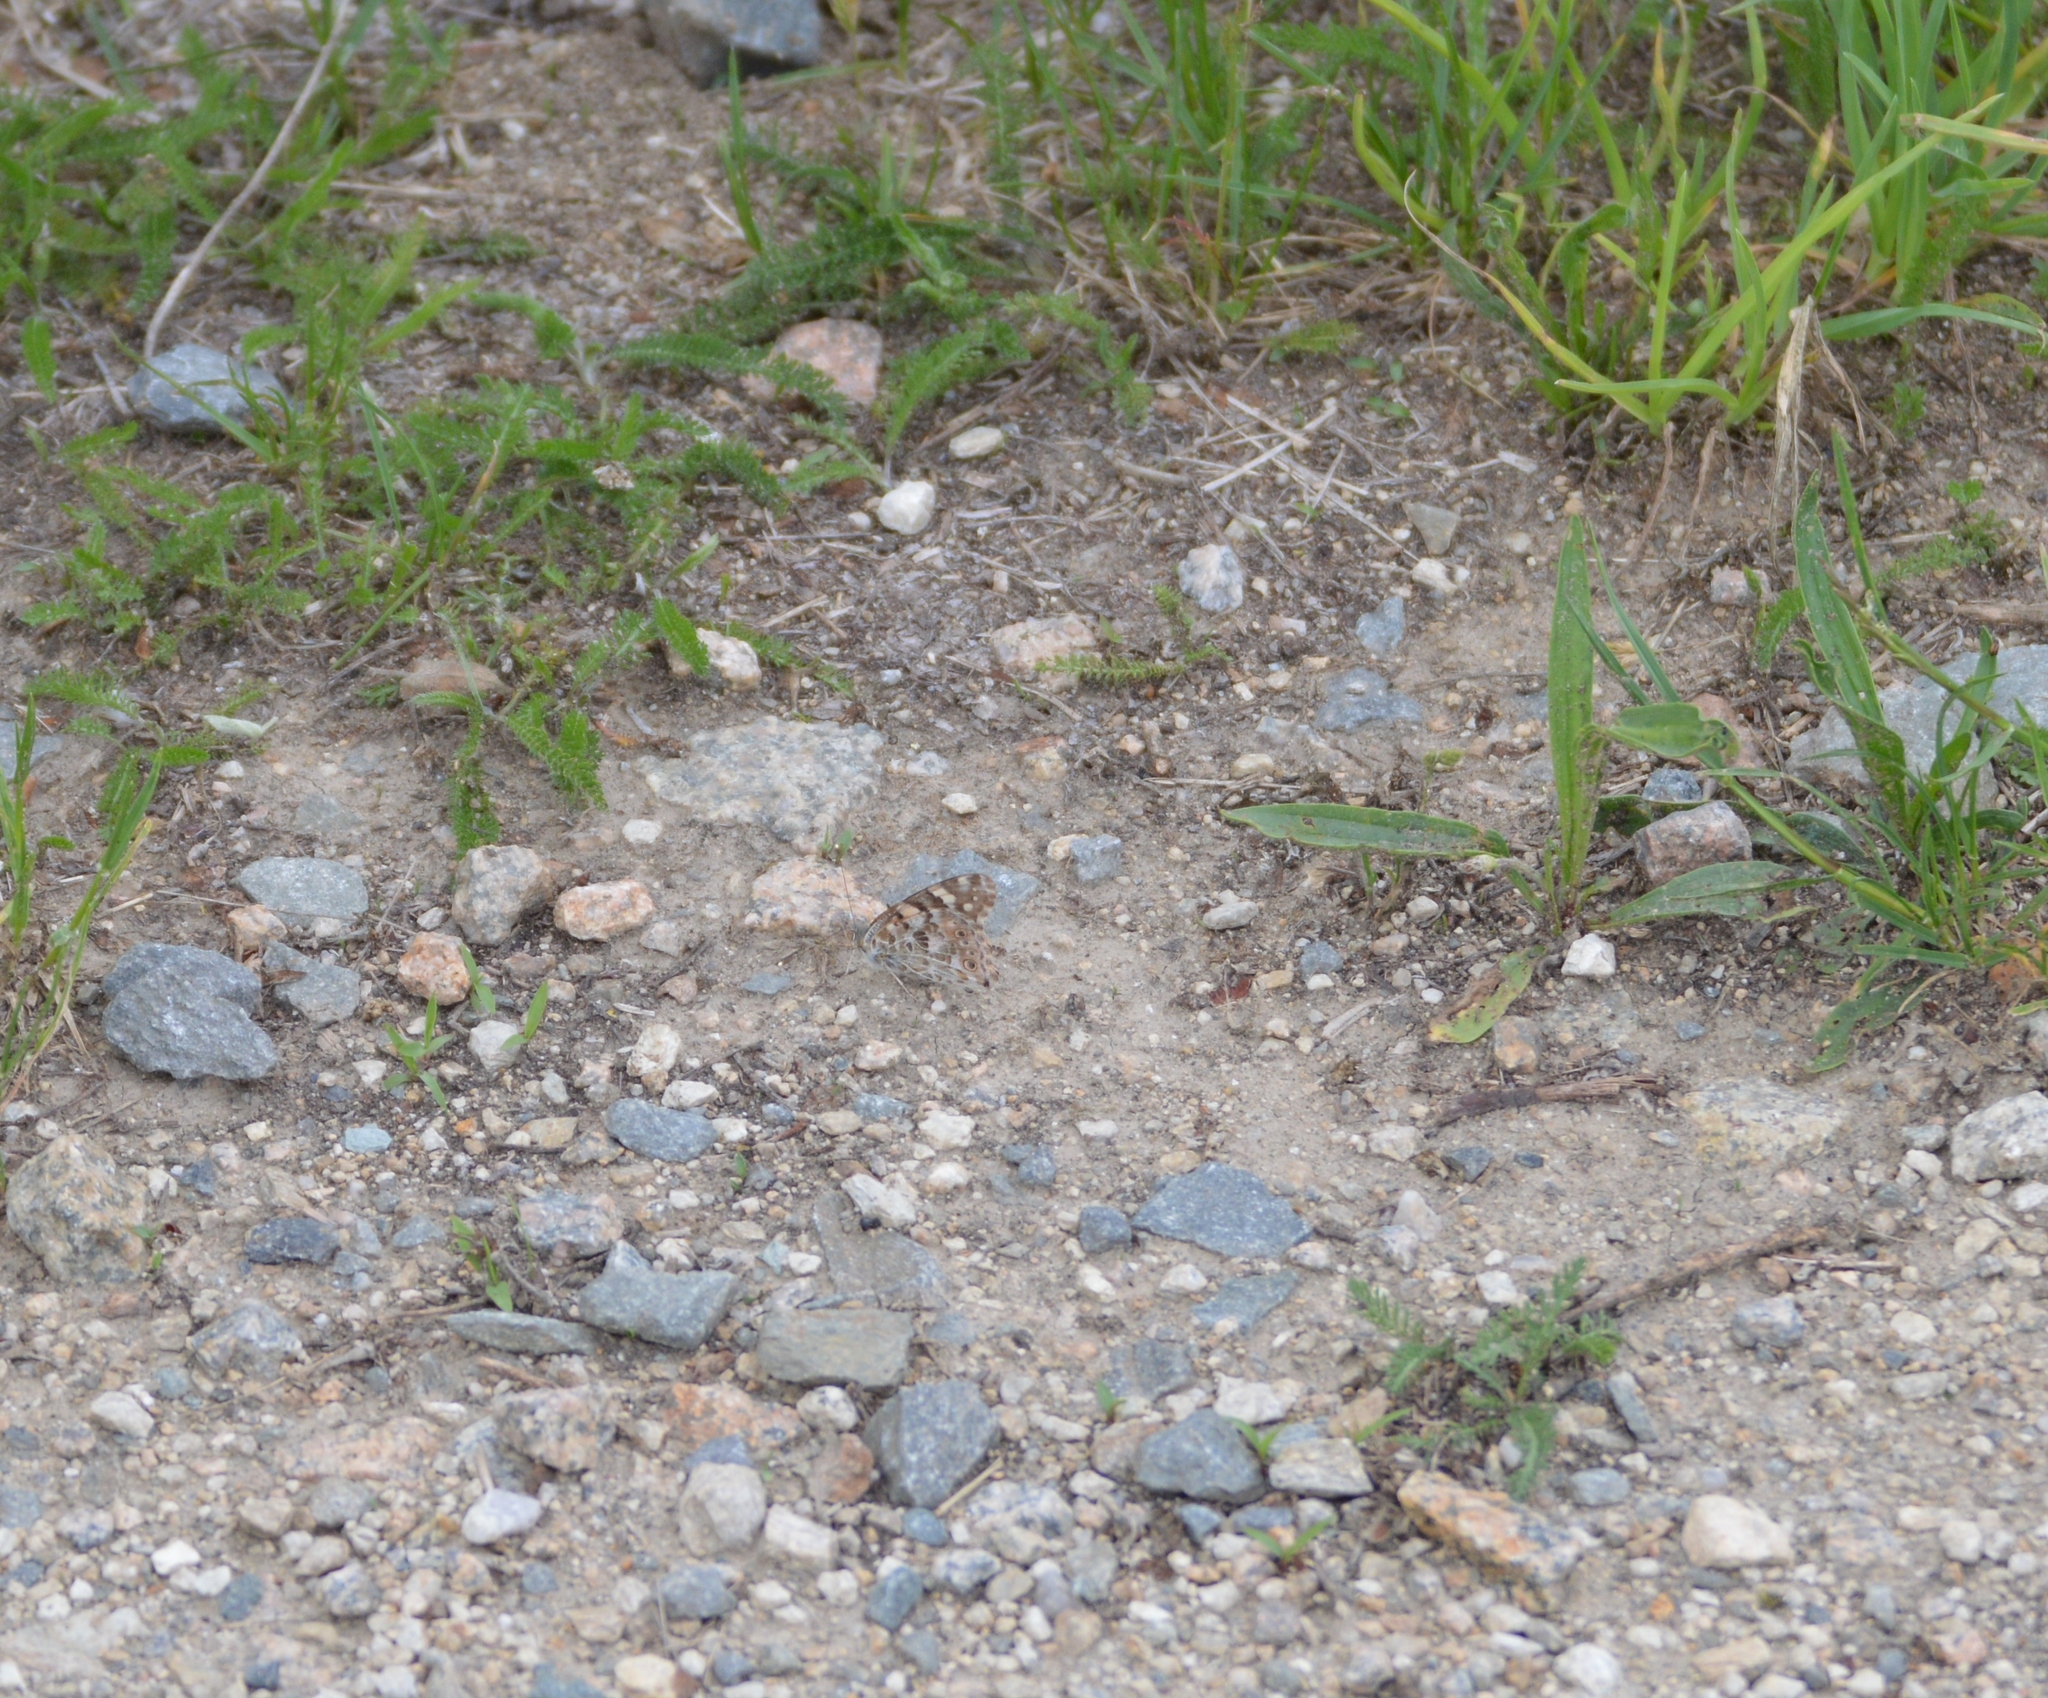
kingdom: Animalia
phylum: Arthropoda
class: Insecta
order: Lepidoptera
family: Nymphalidae
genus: Vanessa
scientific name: Vanessa cardui
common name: Painted lady
